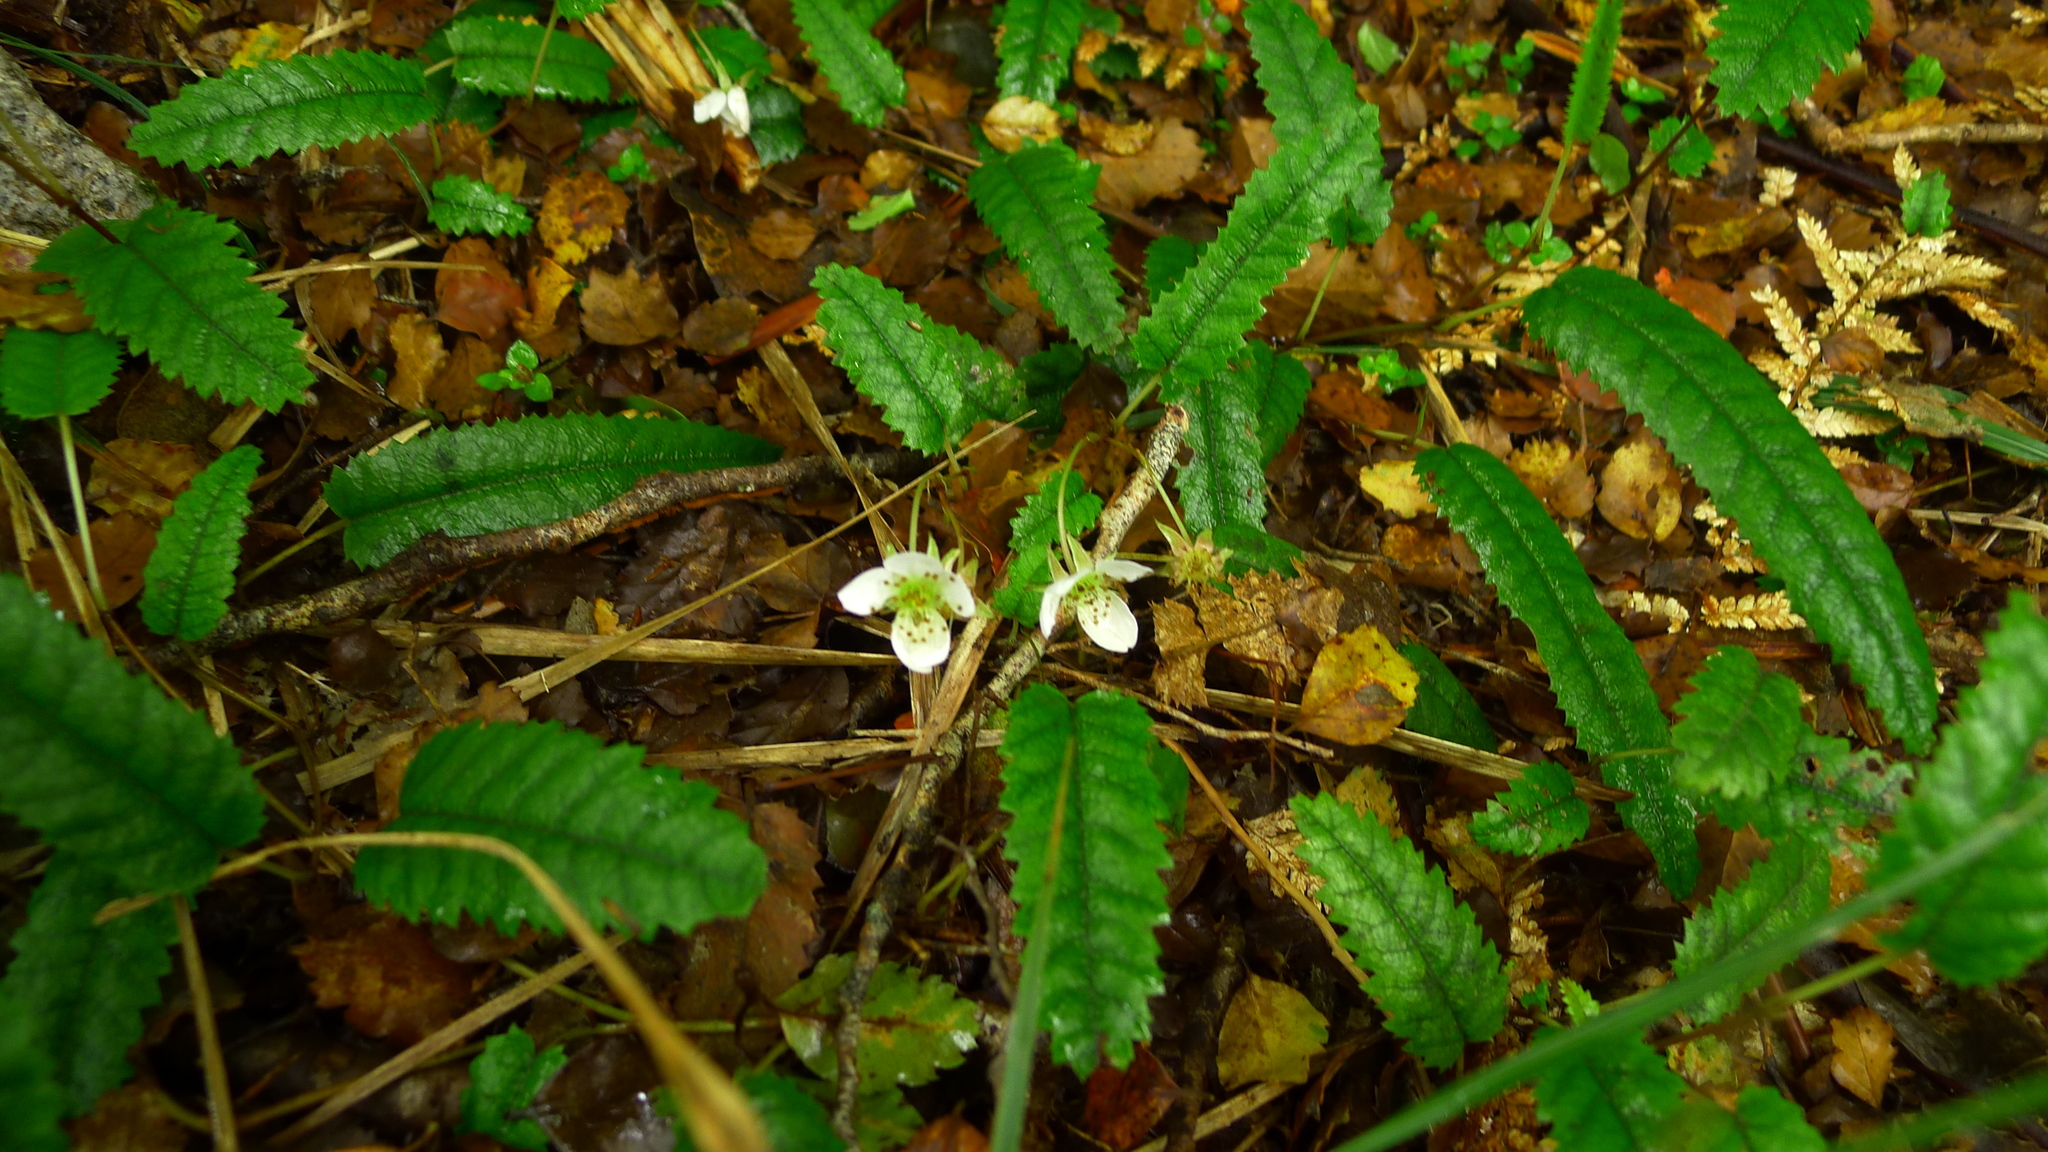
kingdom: Plantae
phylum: Tracheophyta
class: Magnoliopsida
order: Rosales
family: Rosaceae
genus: Rubus
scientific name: Rubus parvus
